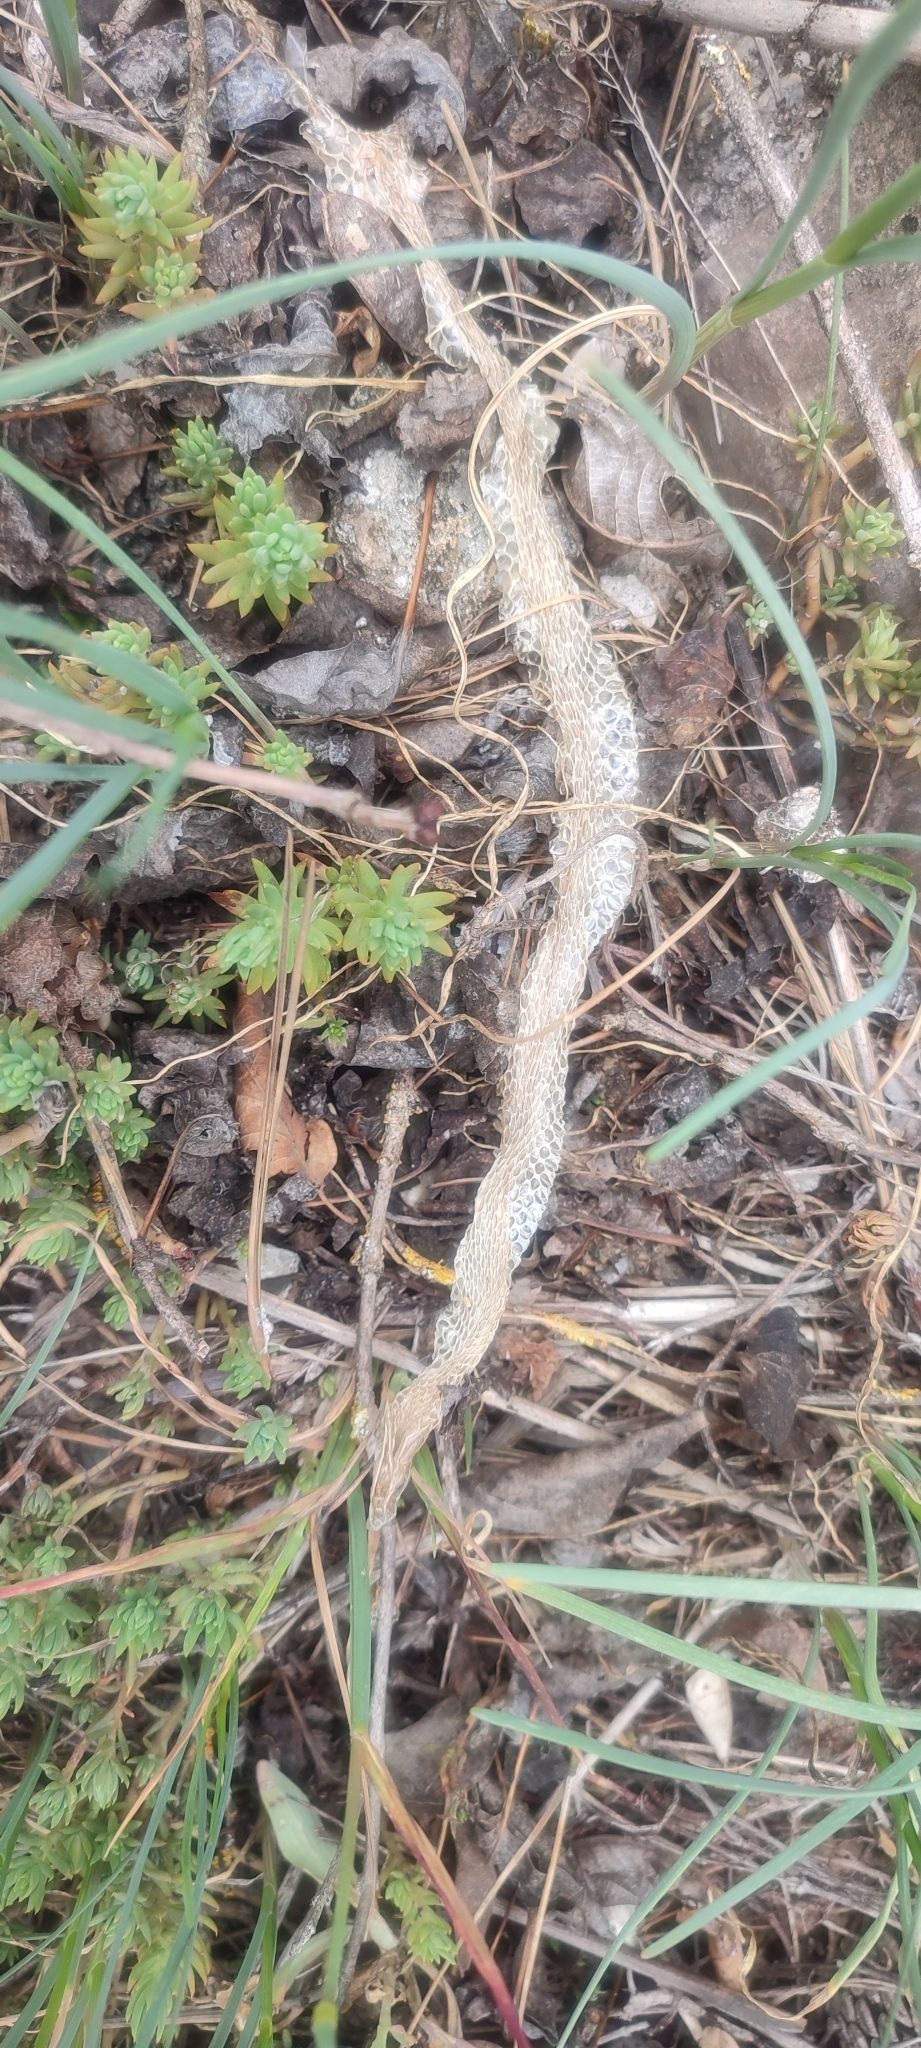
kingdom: Animalia
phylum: Chordata
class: Squamata
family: Colubridae
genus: Natrix
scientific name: Natrix maura
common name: Viperine water snake
